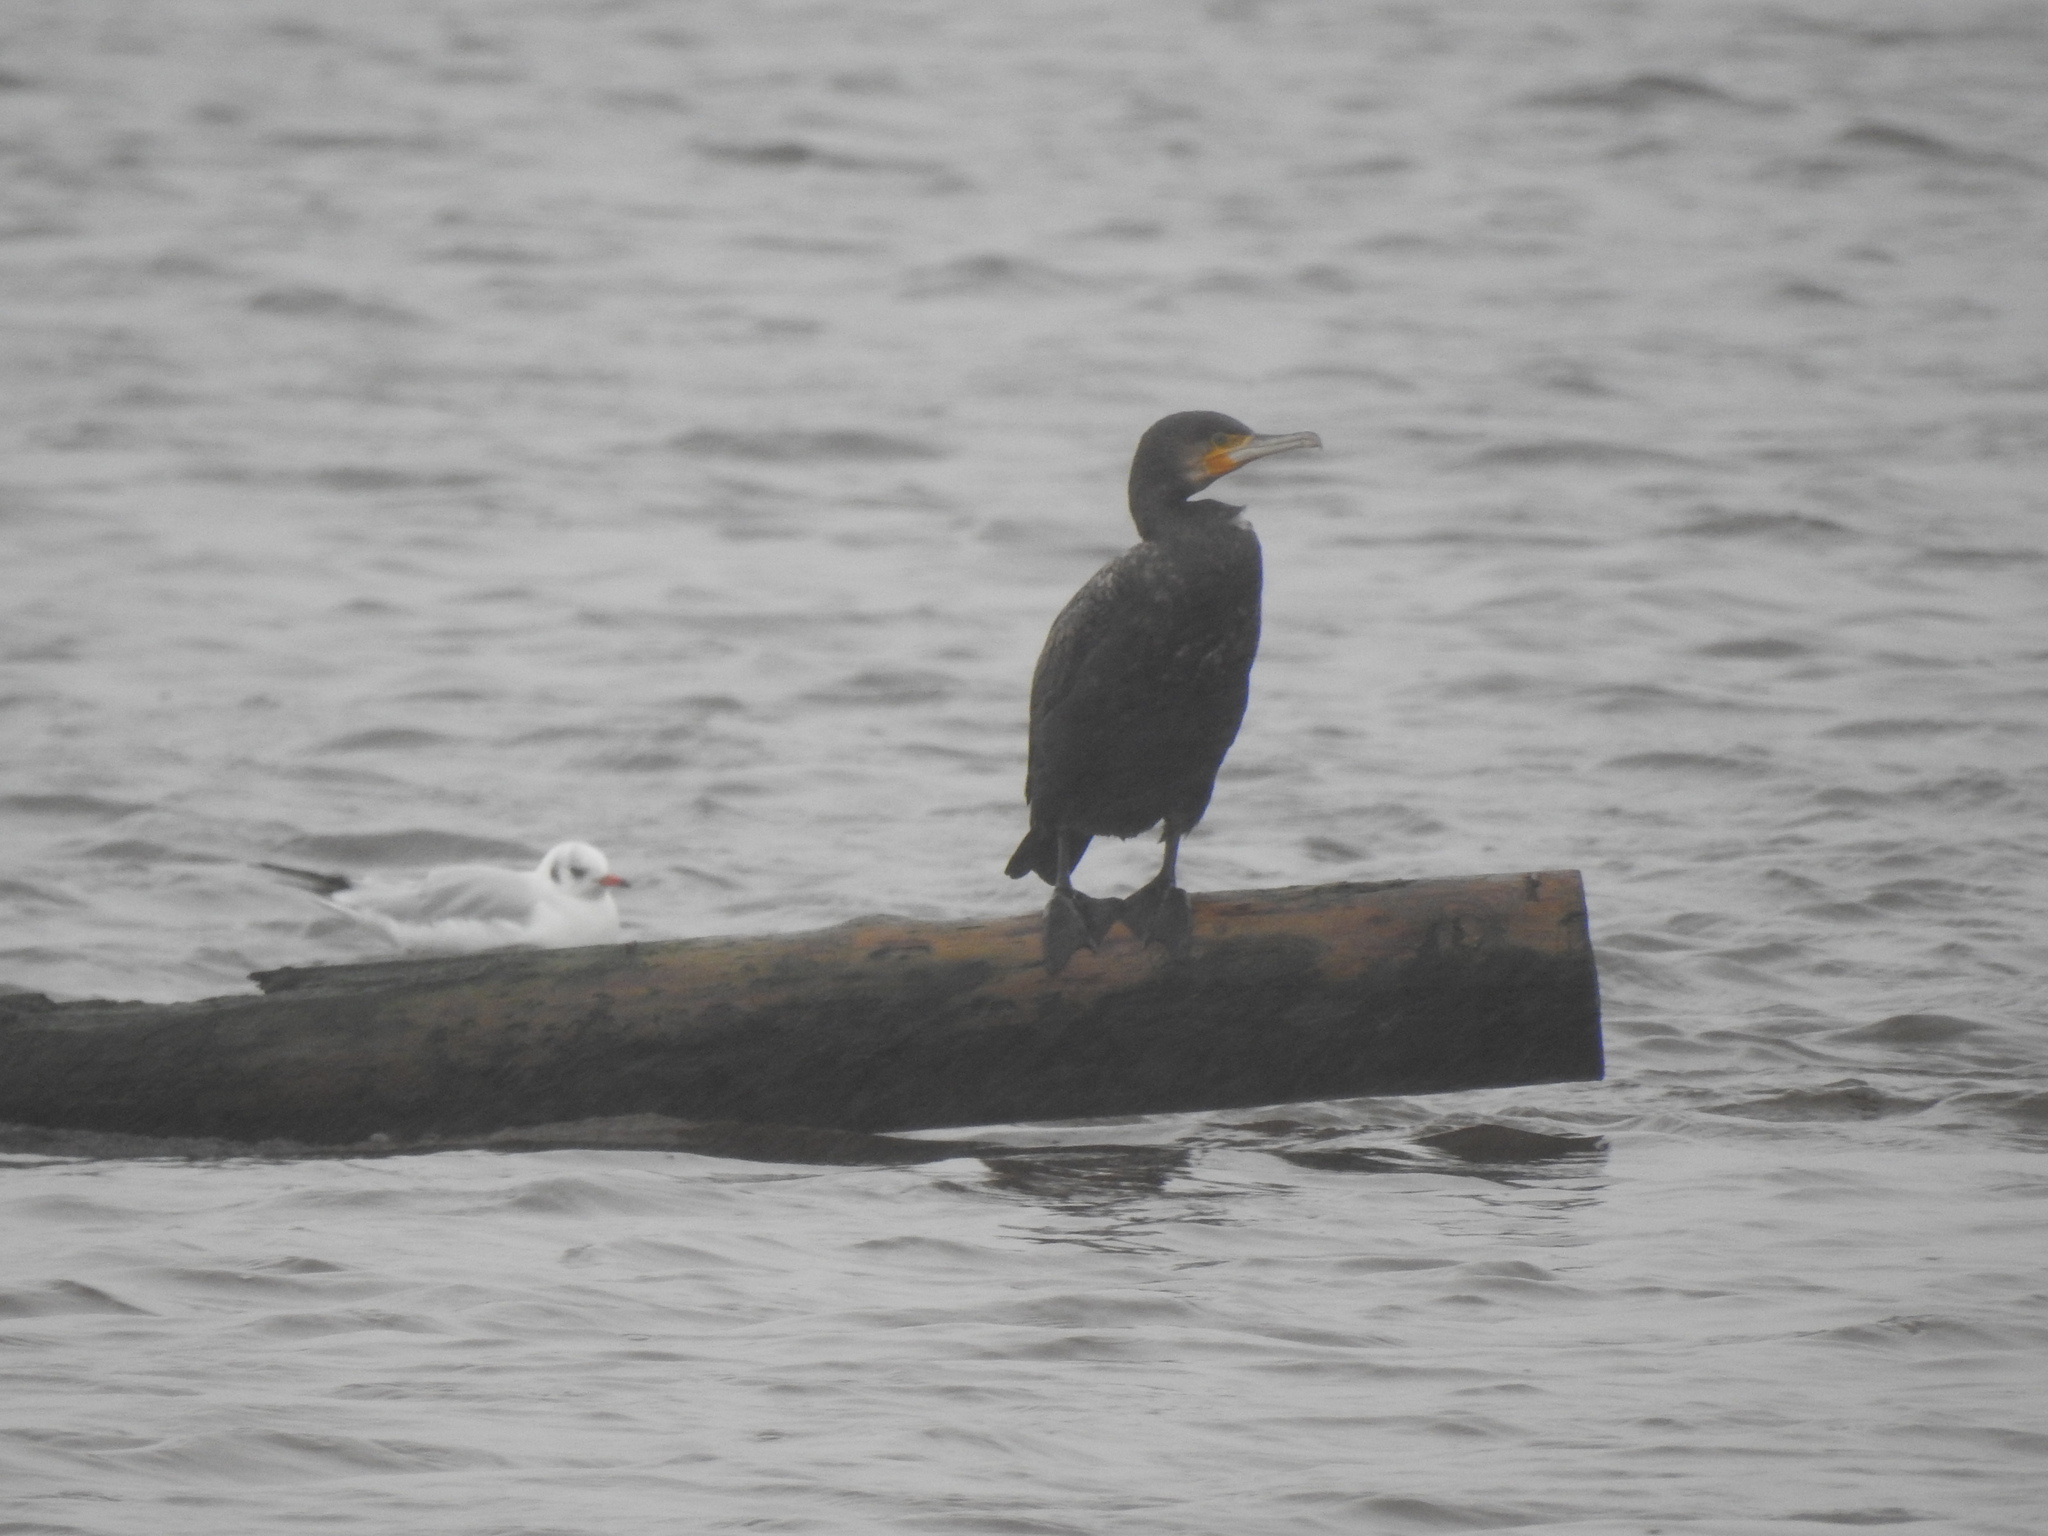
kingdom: Animalia
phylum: Chordata
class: Aves
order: Suliformes
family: Phalacrocoracidae
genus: Phalacrocorax
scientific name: Phalacrocorax carbo
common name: Great cormorant
